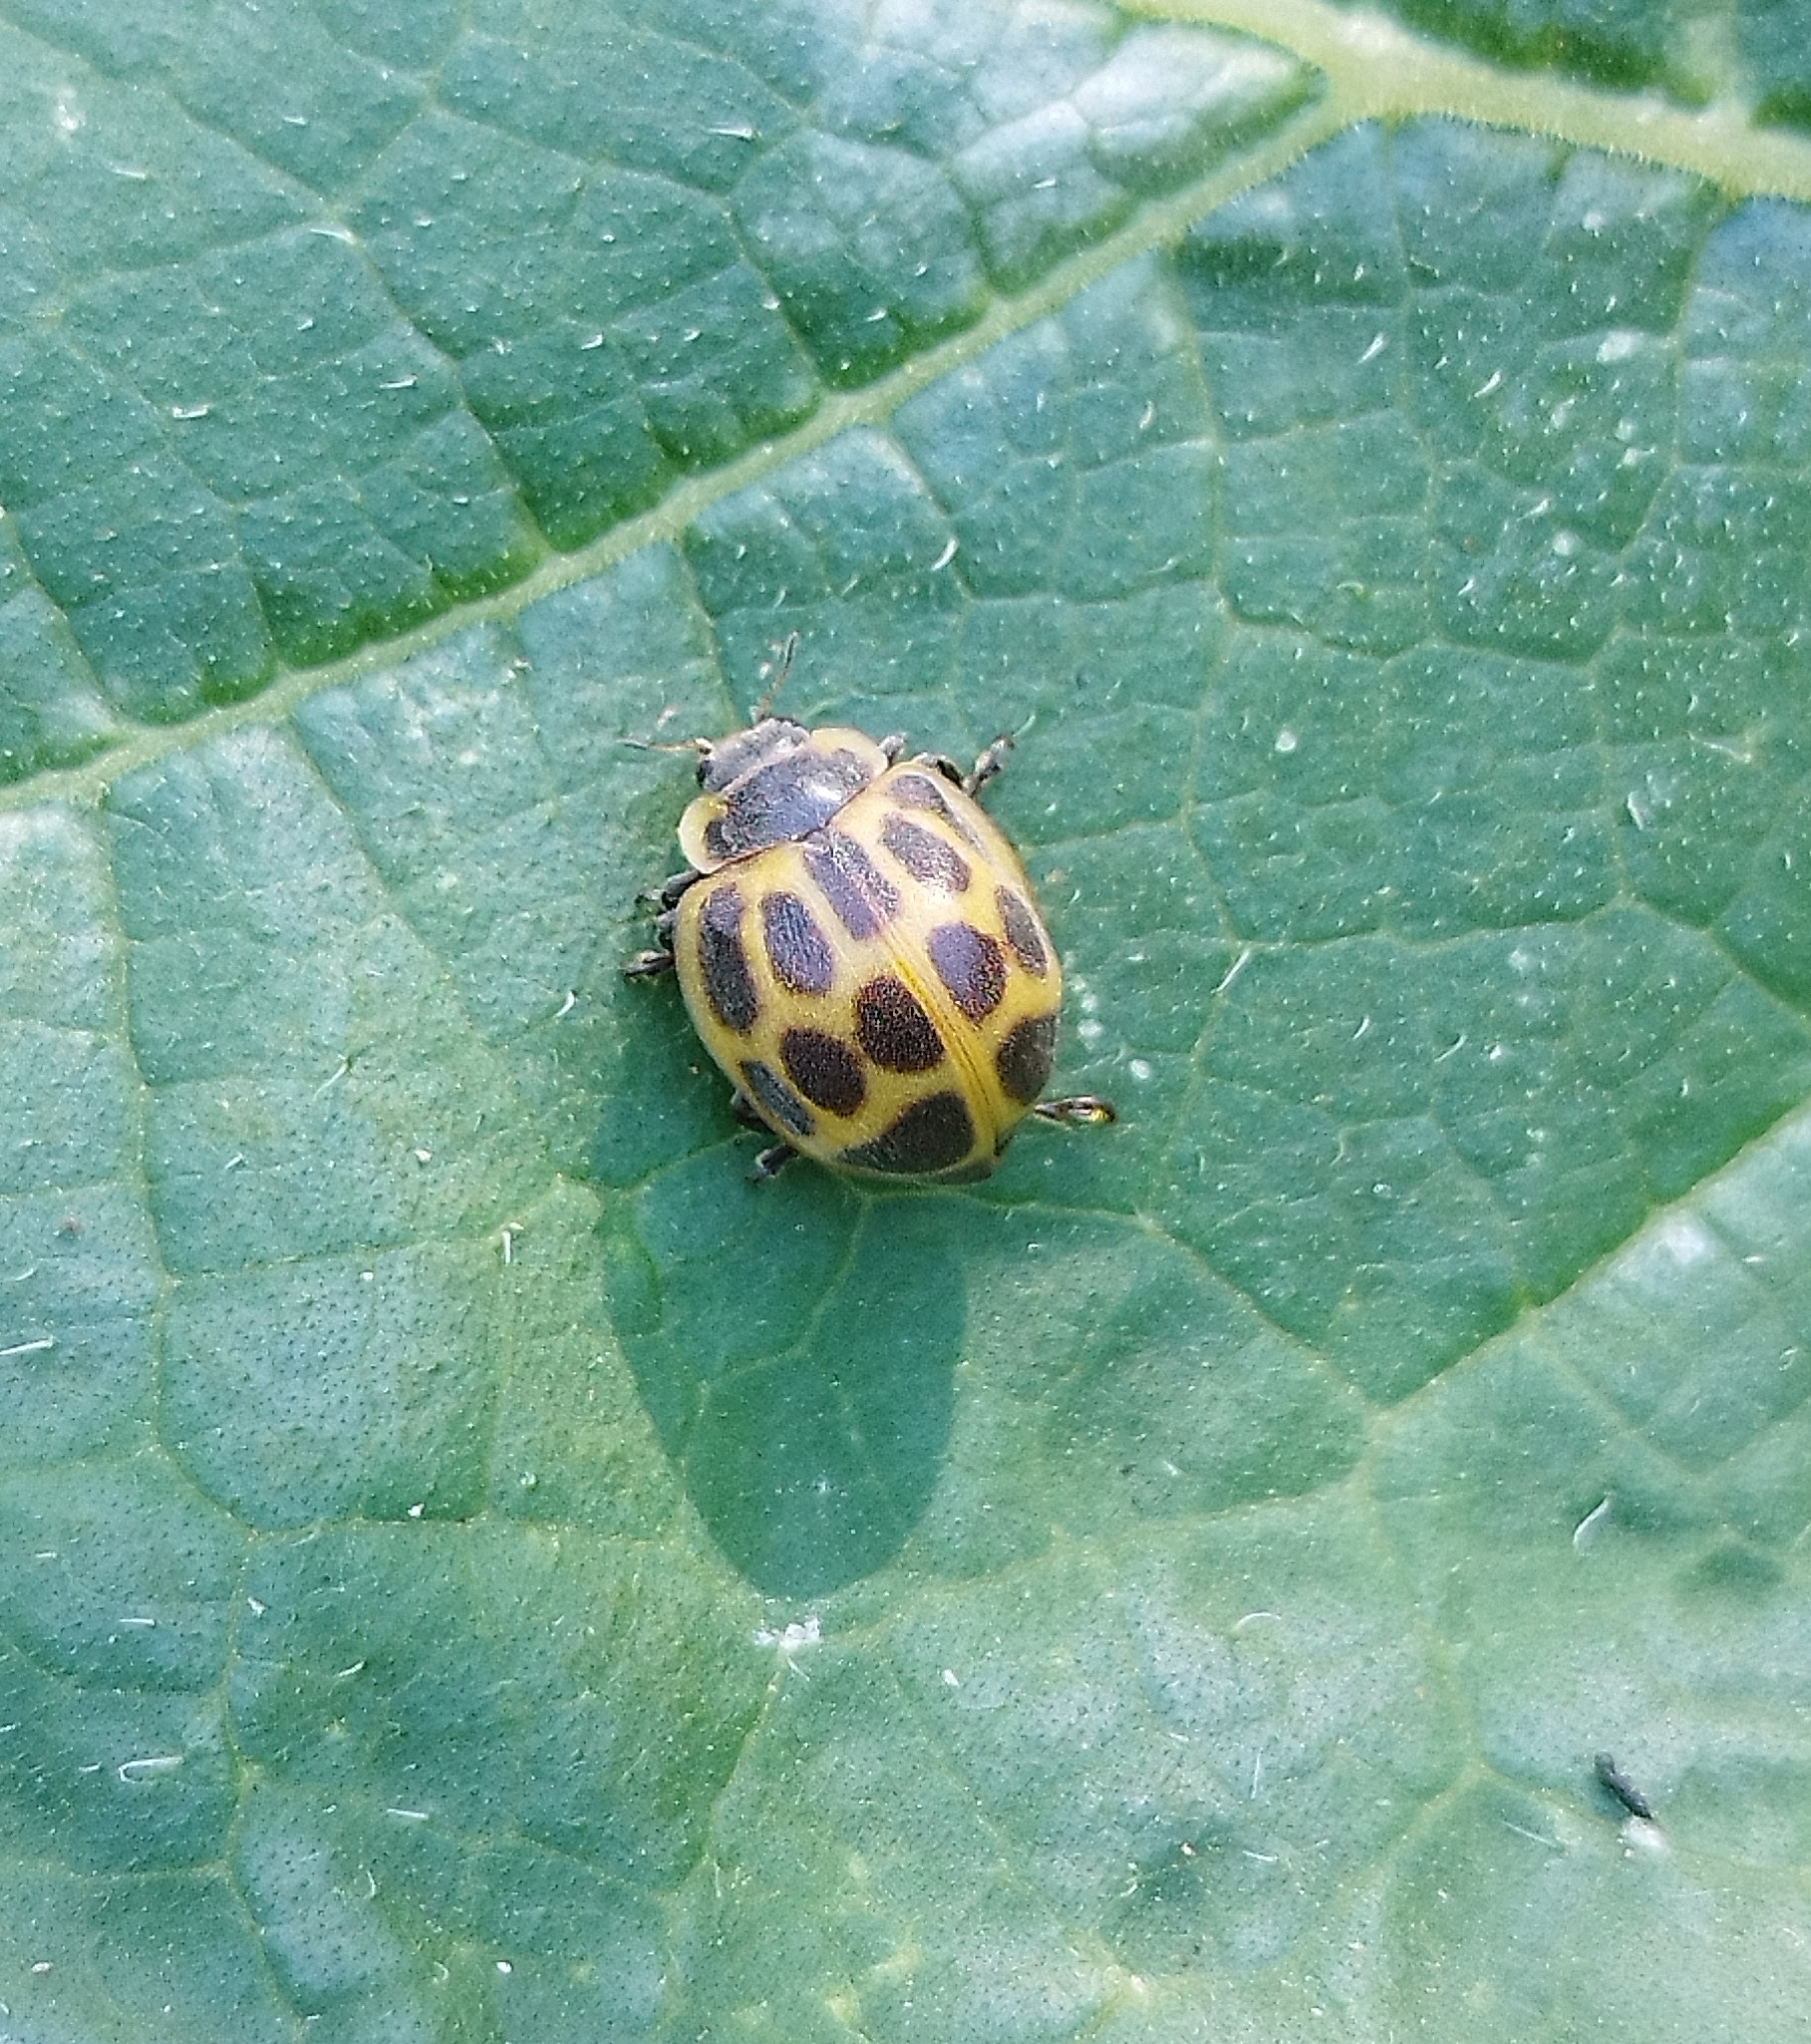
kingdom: Animalia
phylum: Arthropoda
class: Insecta
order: Coleoptera
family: Coccinellidae
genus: Epilachna
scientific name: Epilachna
